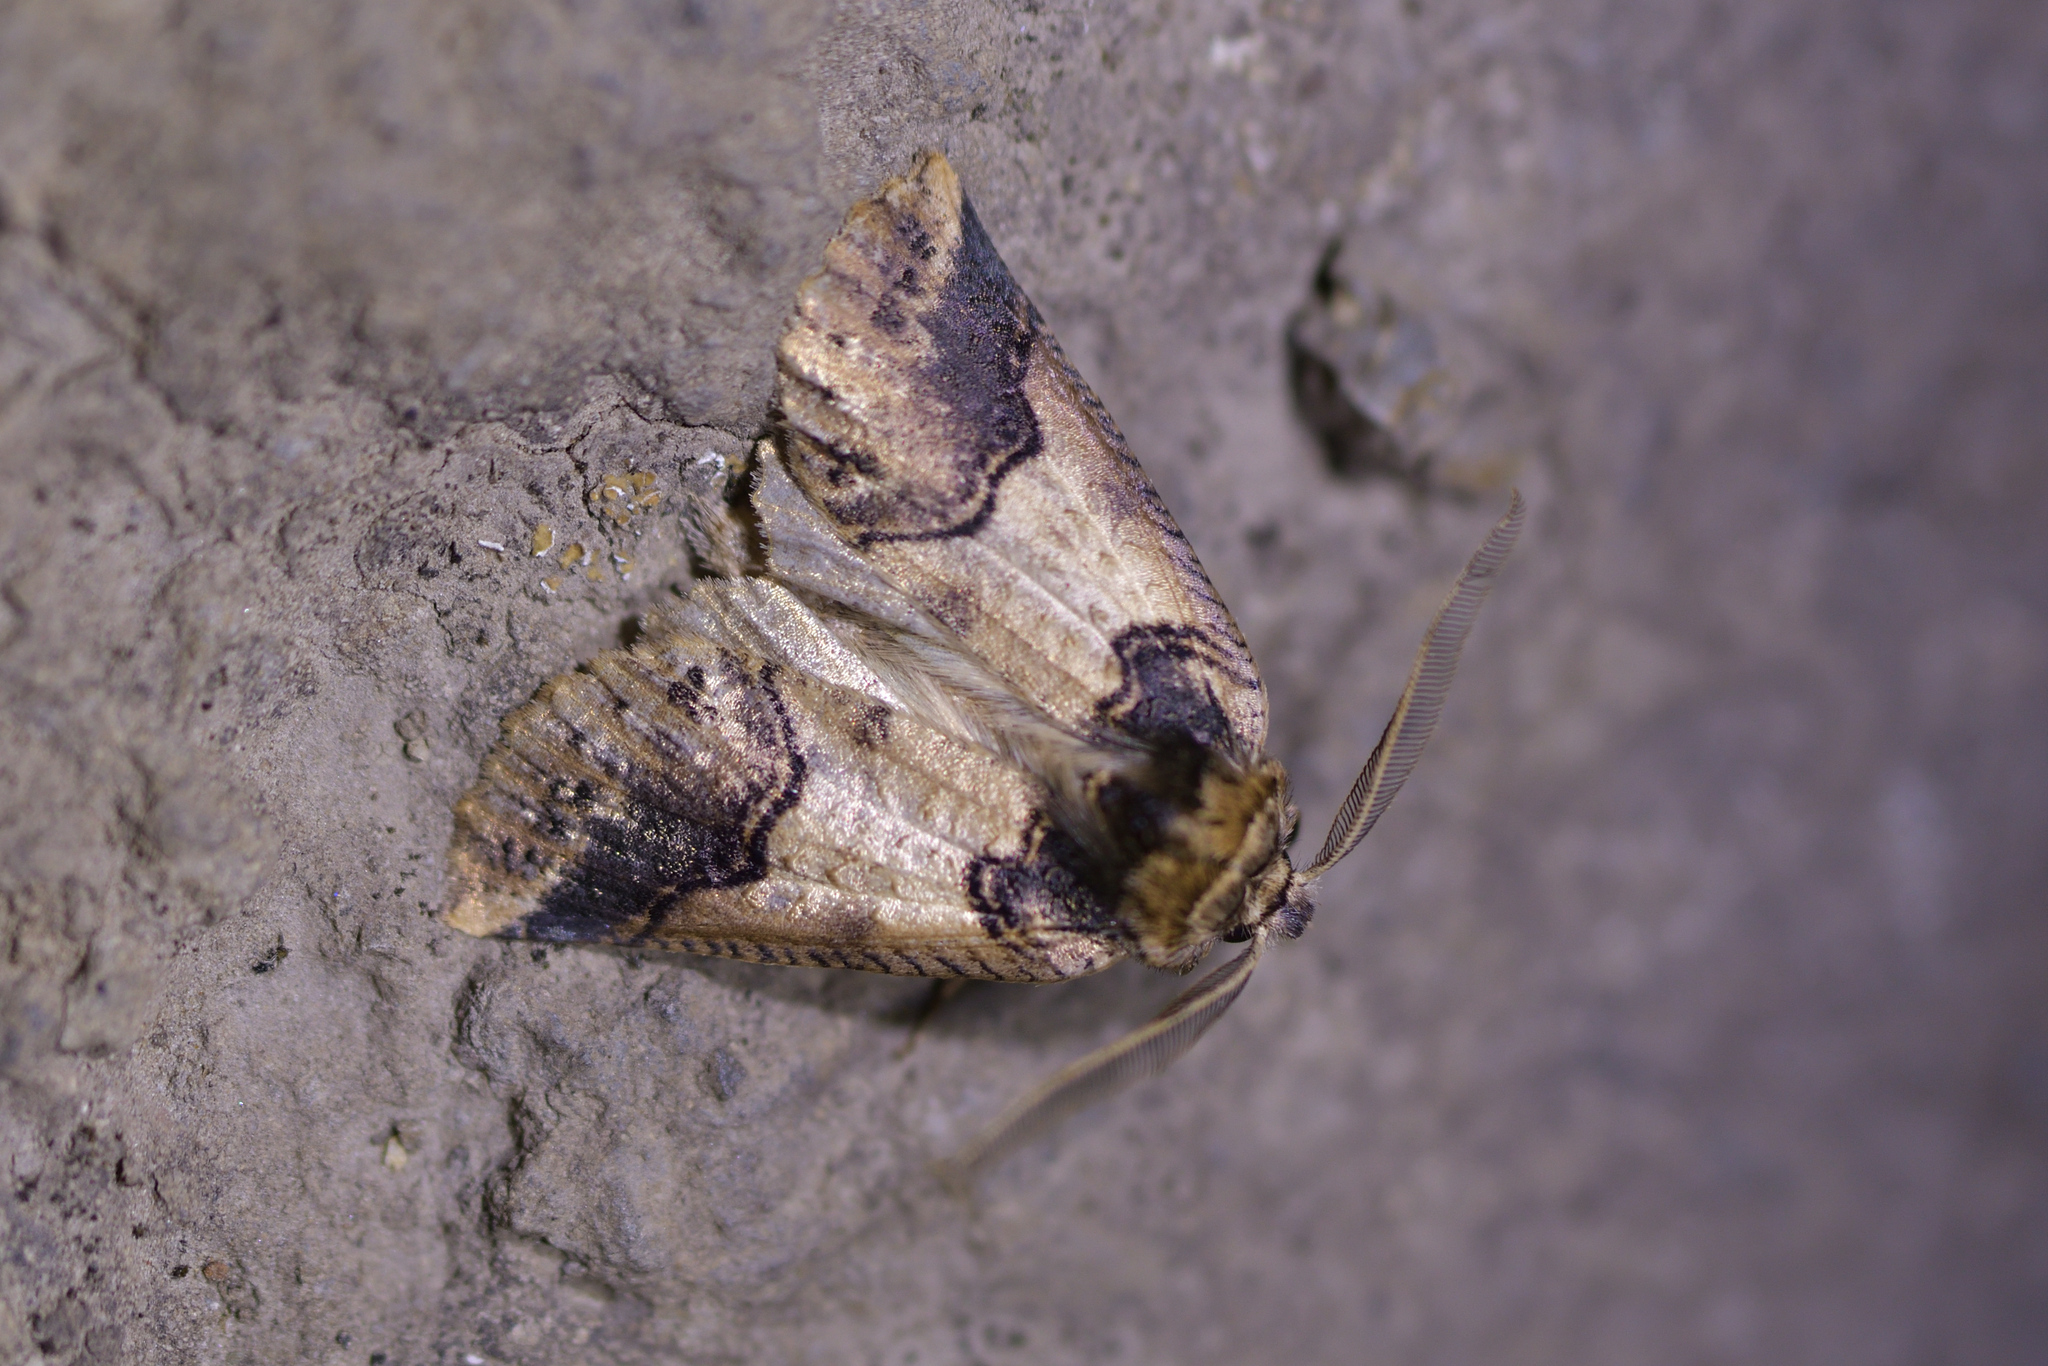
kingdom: Animalia
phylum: Arthropoda
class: Insecta
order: Lepidoptera
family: Geometridae
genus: Declana
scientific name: Declana
